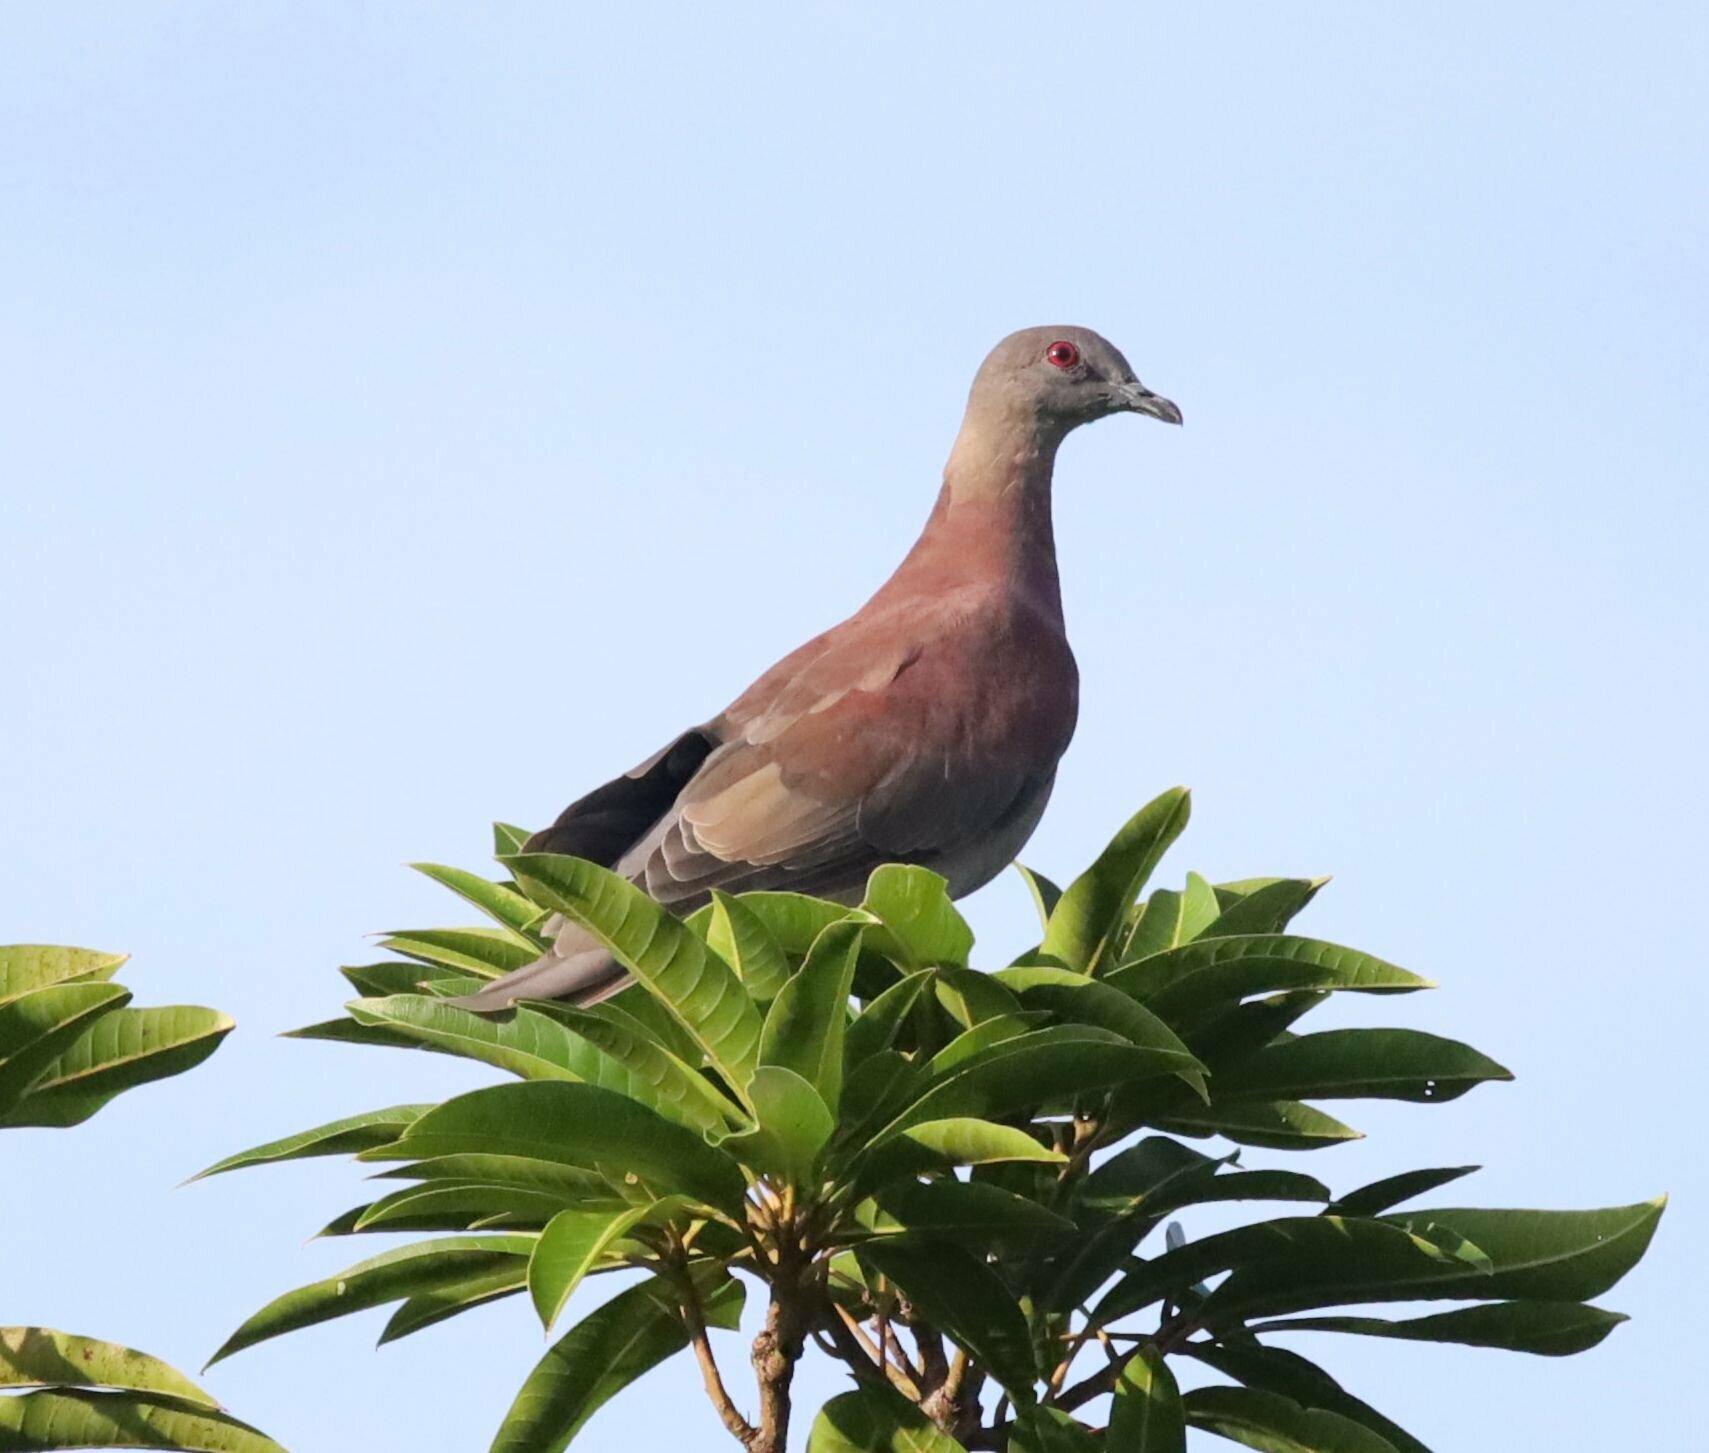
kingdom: Animalia
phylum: Chordata
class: Aves
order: Columbiformes
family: Columbidae
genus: Patagioenas
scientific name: Patagioenas cayennensis
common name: Pale-vented pigeon
